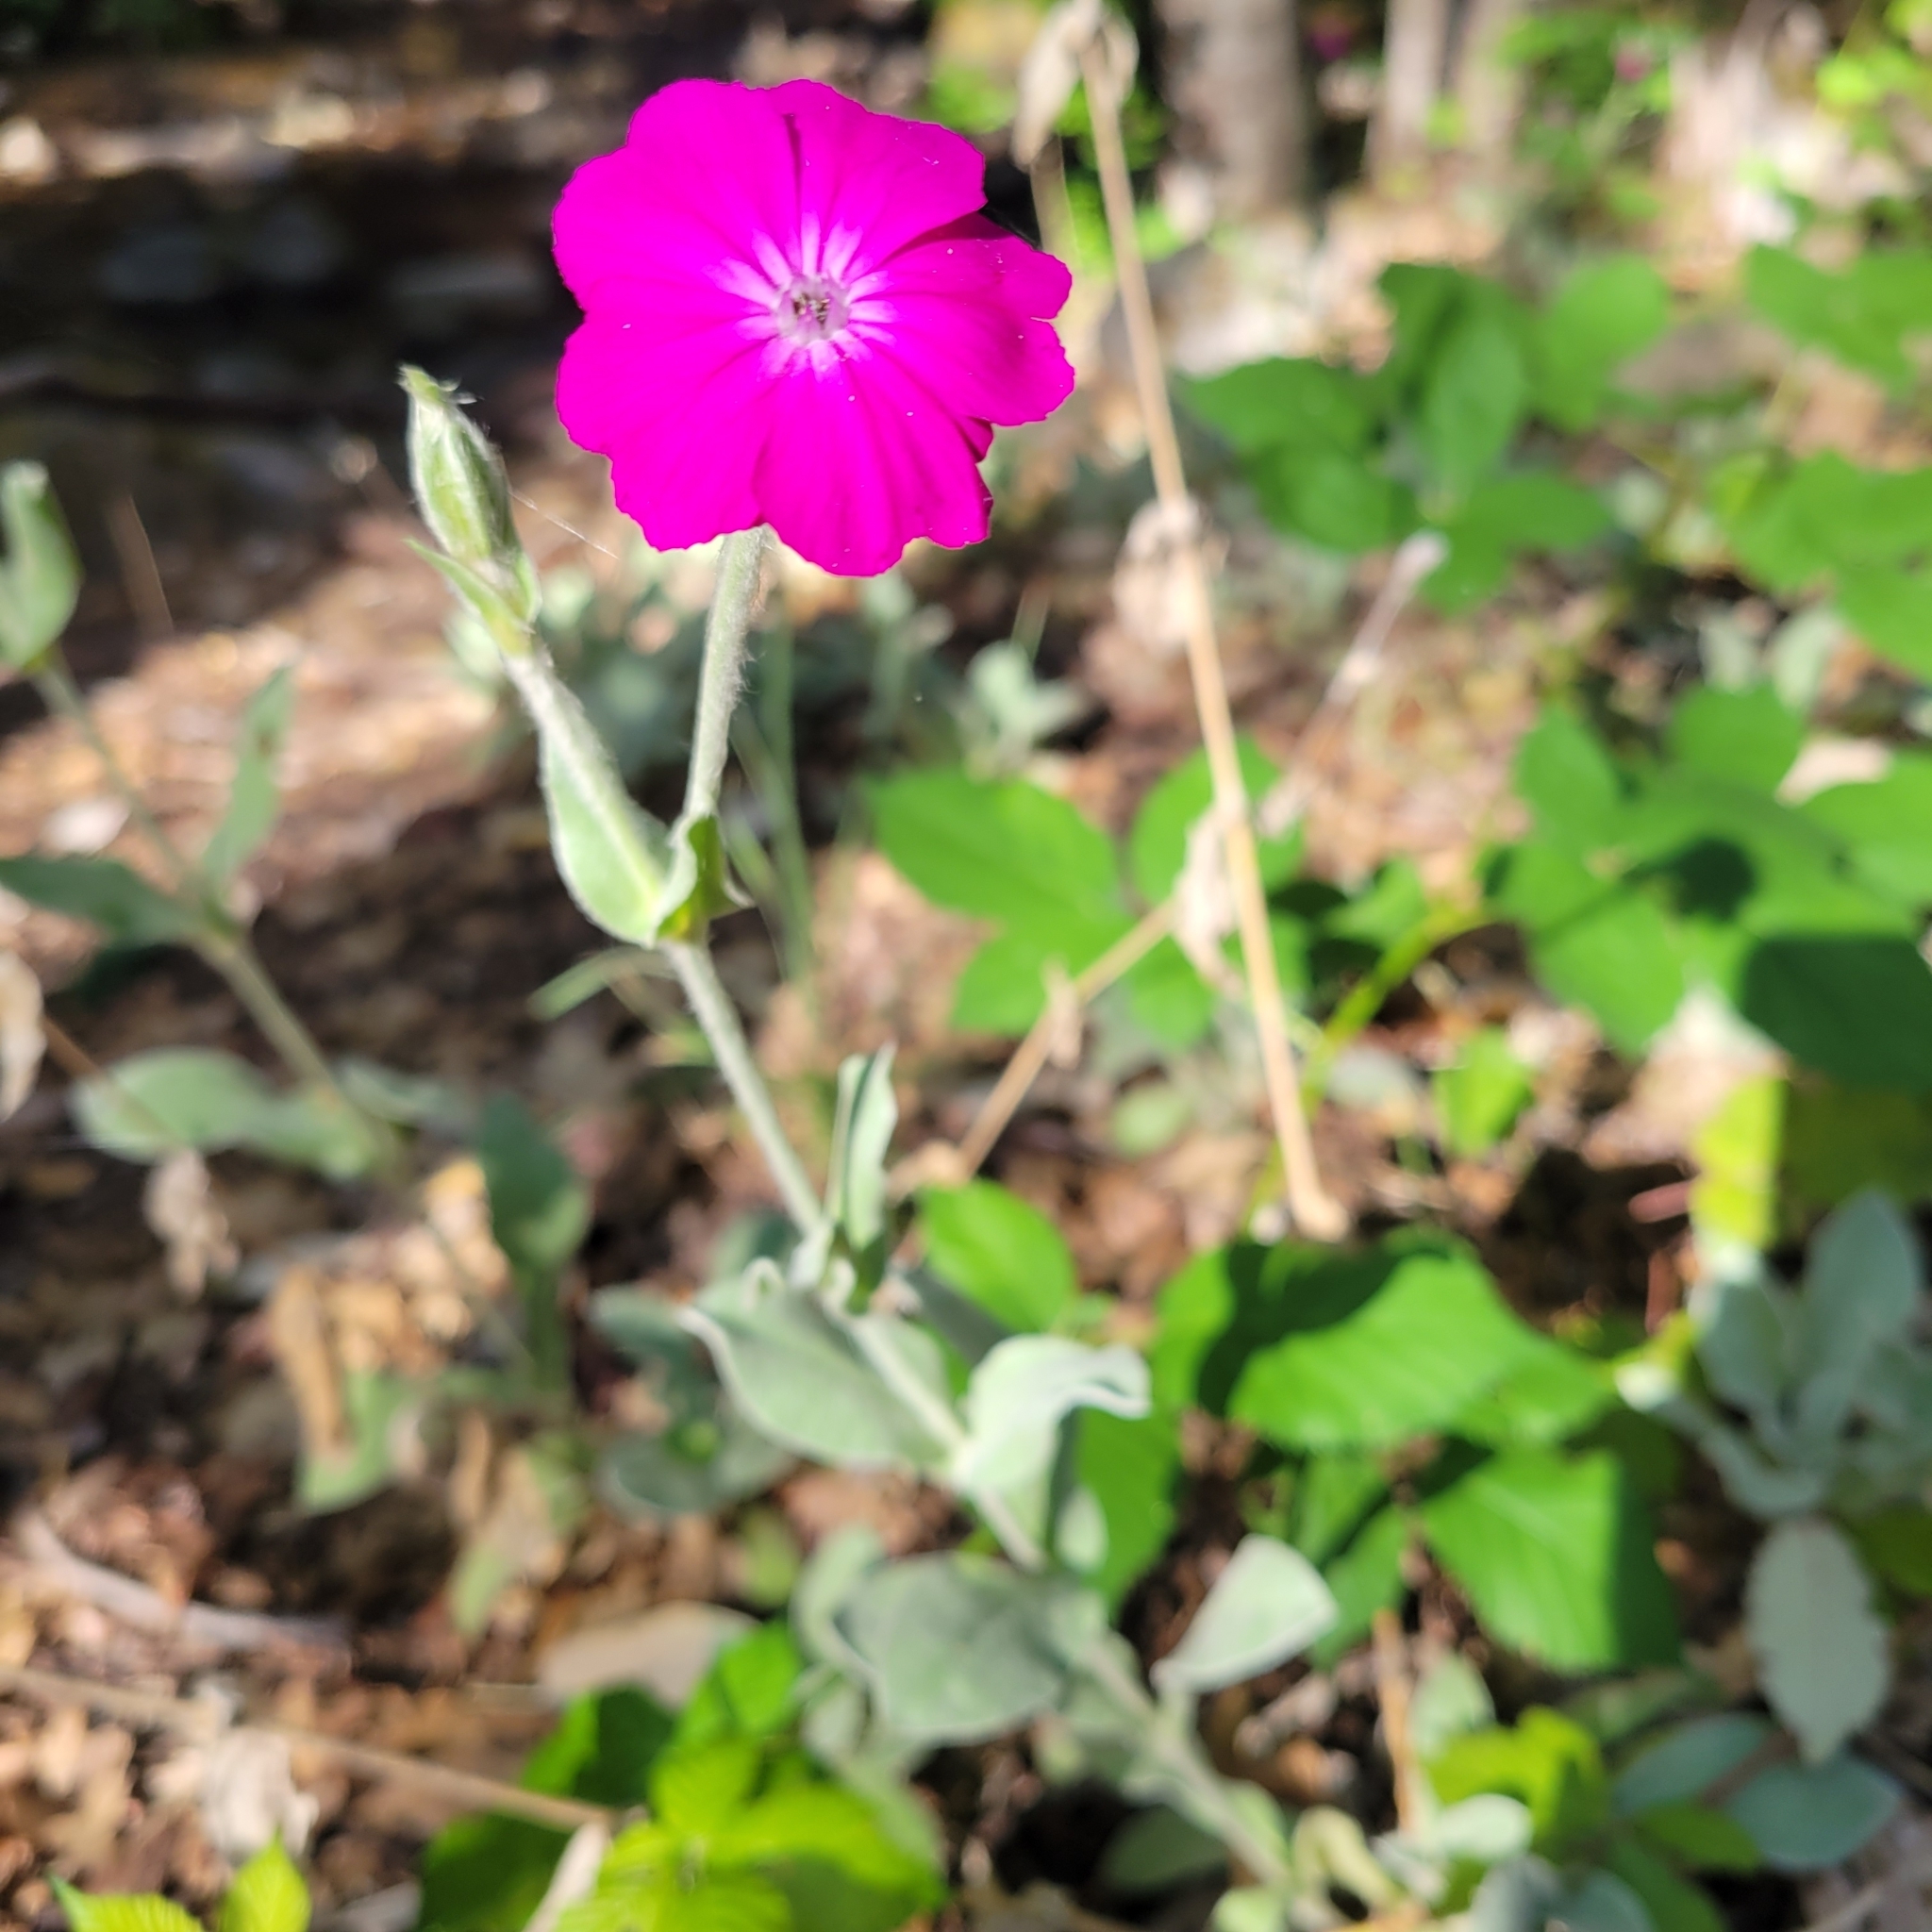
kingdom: Plantae
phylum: Tracheophyta
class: Magnoliopsida
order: Caryophyllales
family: Caryophyllaceae
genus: Silene
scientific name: Silene coronaria
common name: Rose campion
